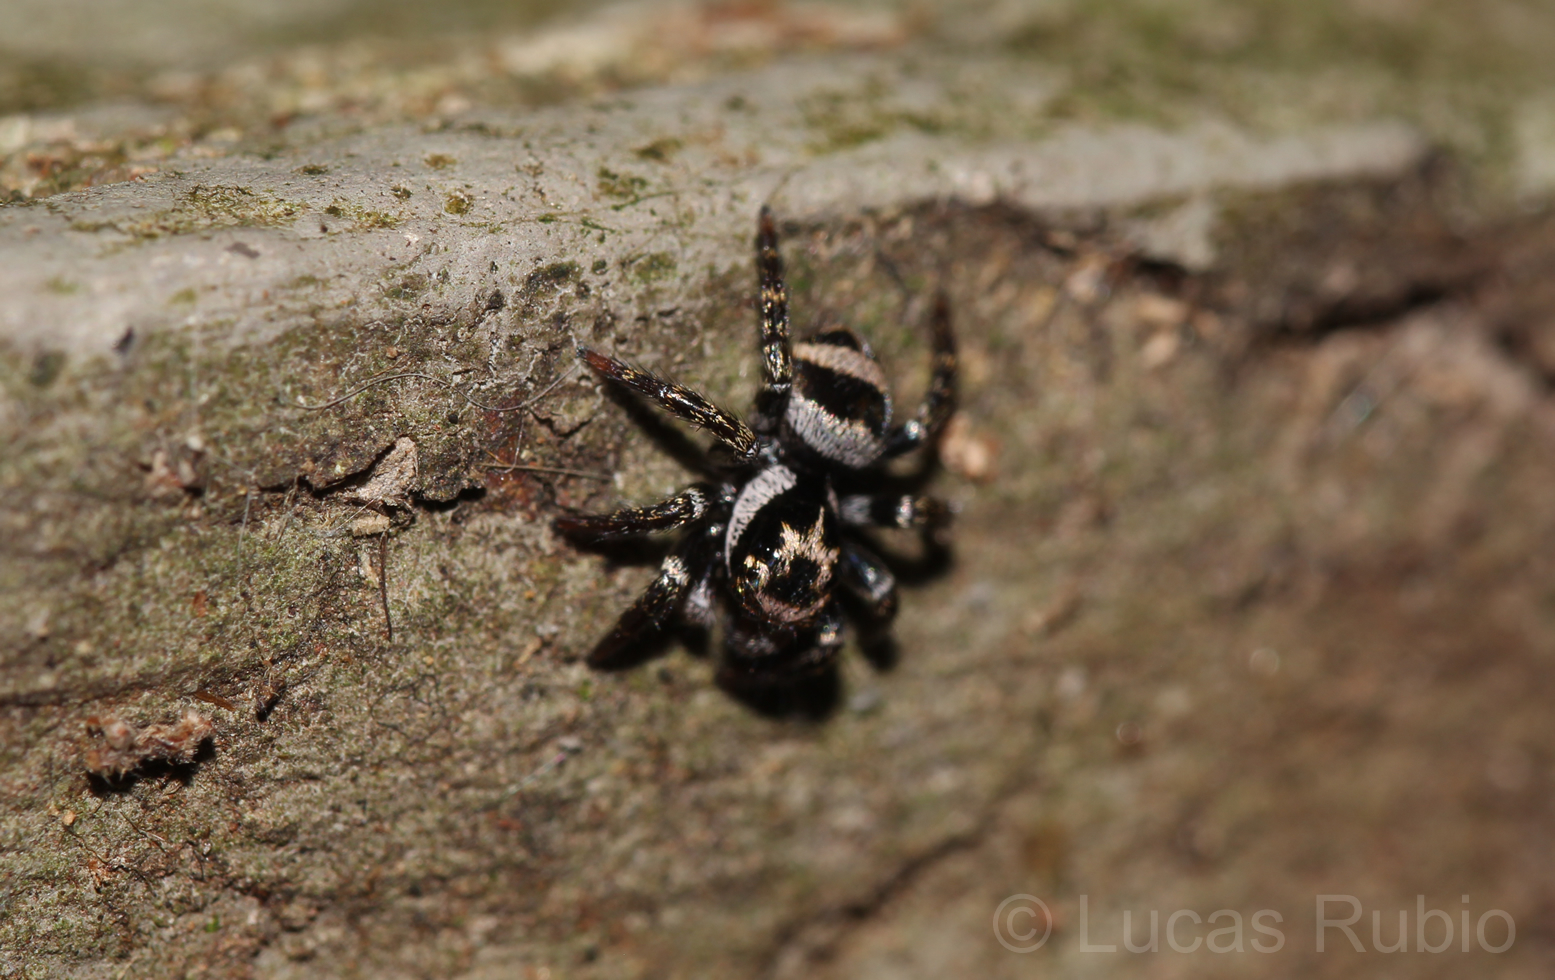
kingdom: Animalia
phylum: Arthropoda
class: Arachnida
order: Araneae
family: Salticidae
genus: Corythalia
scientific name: Corythalia argentinensis
